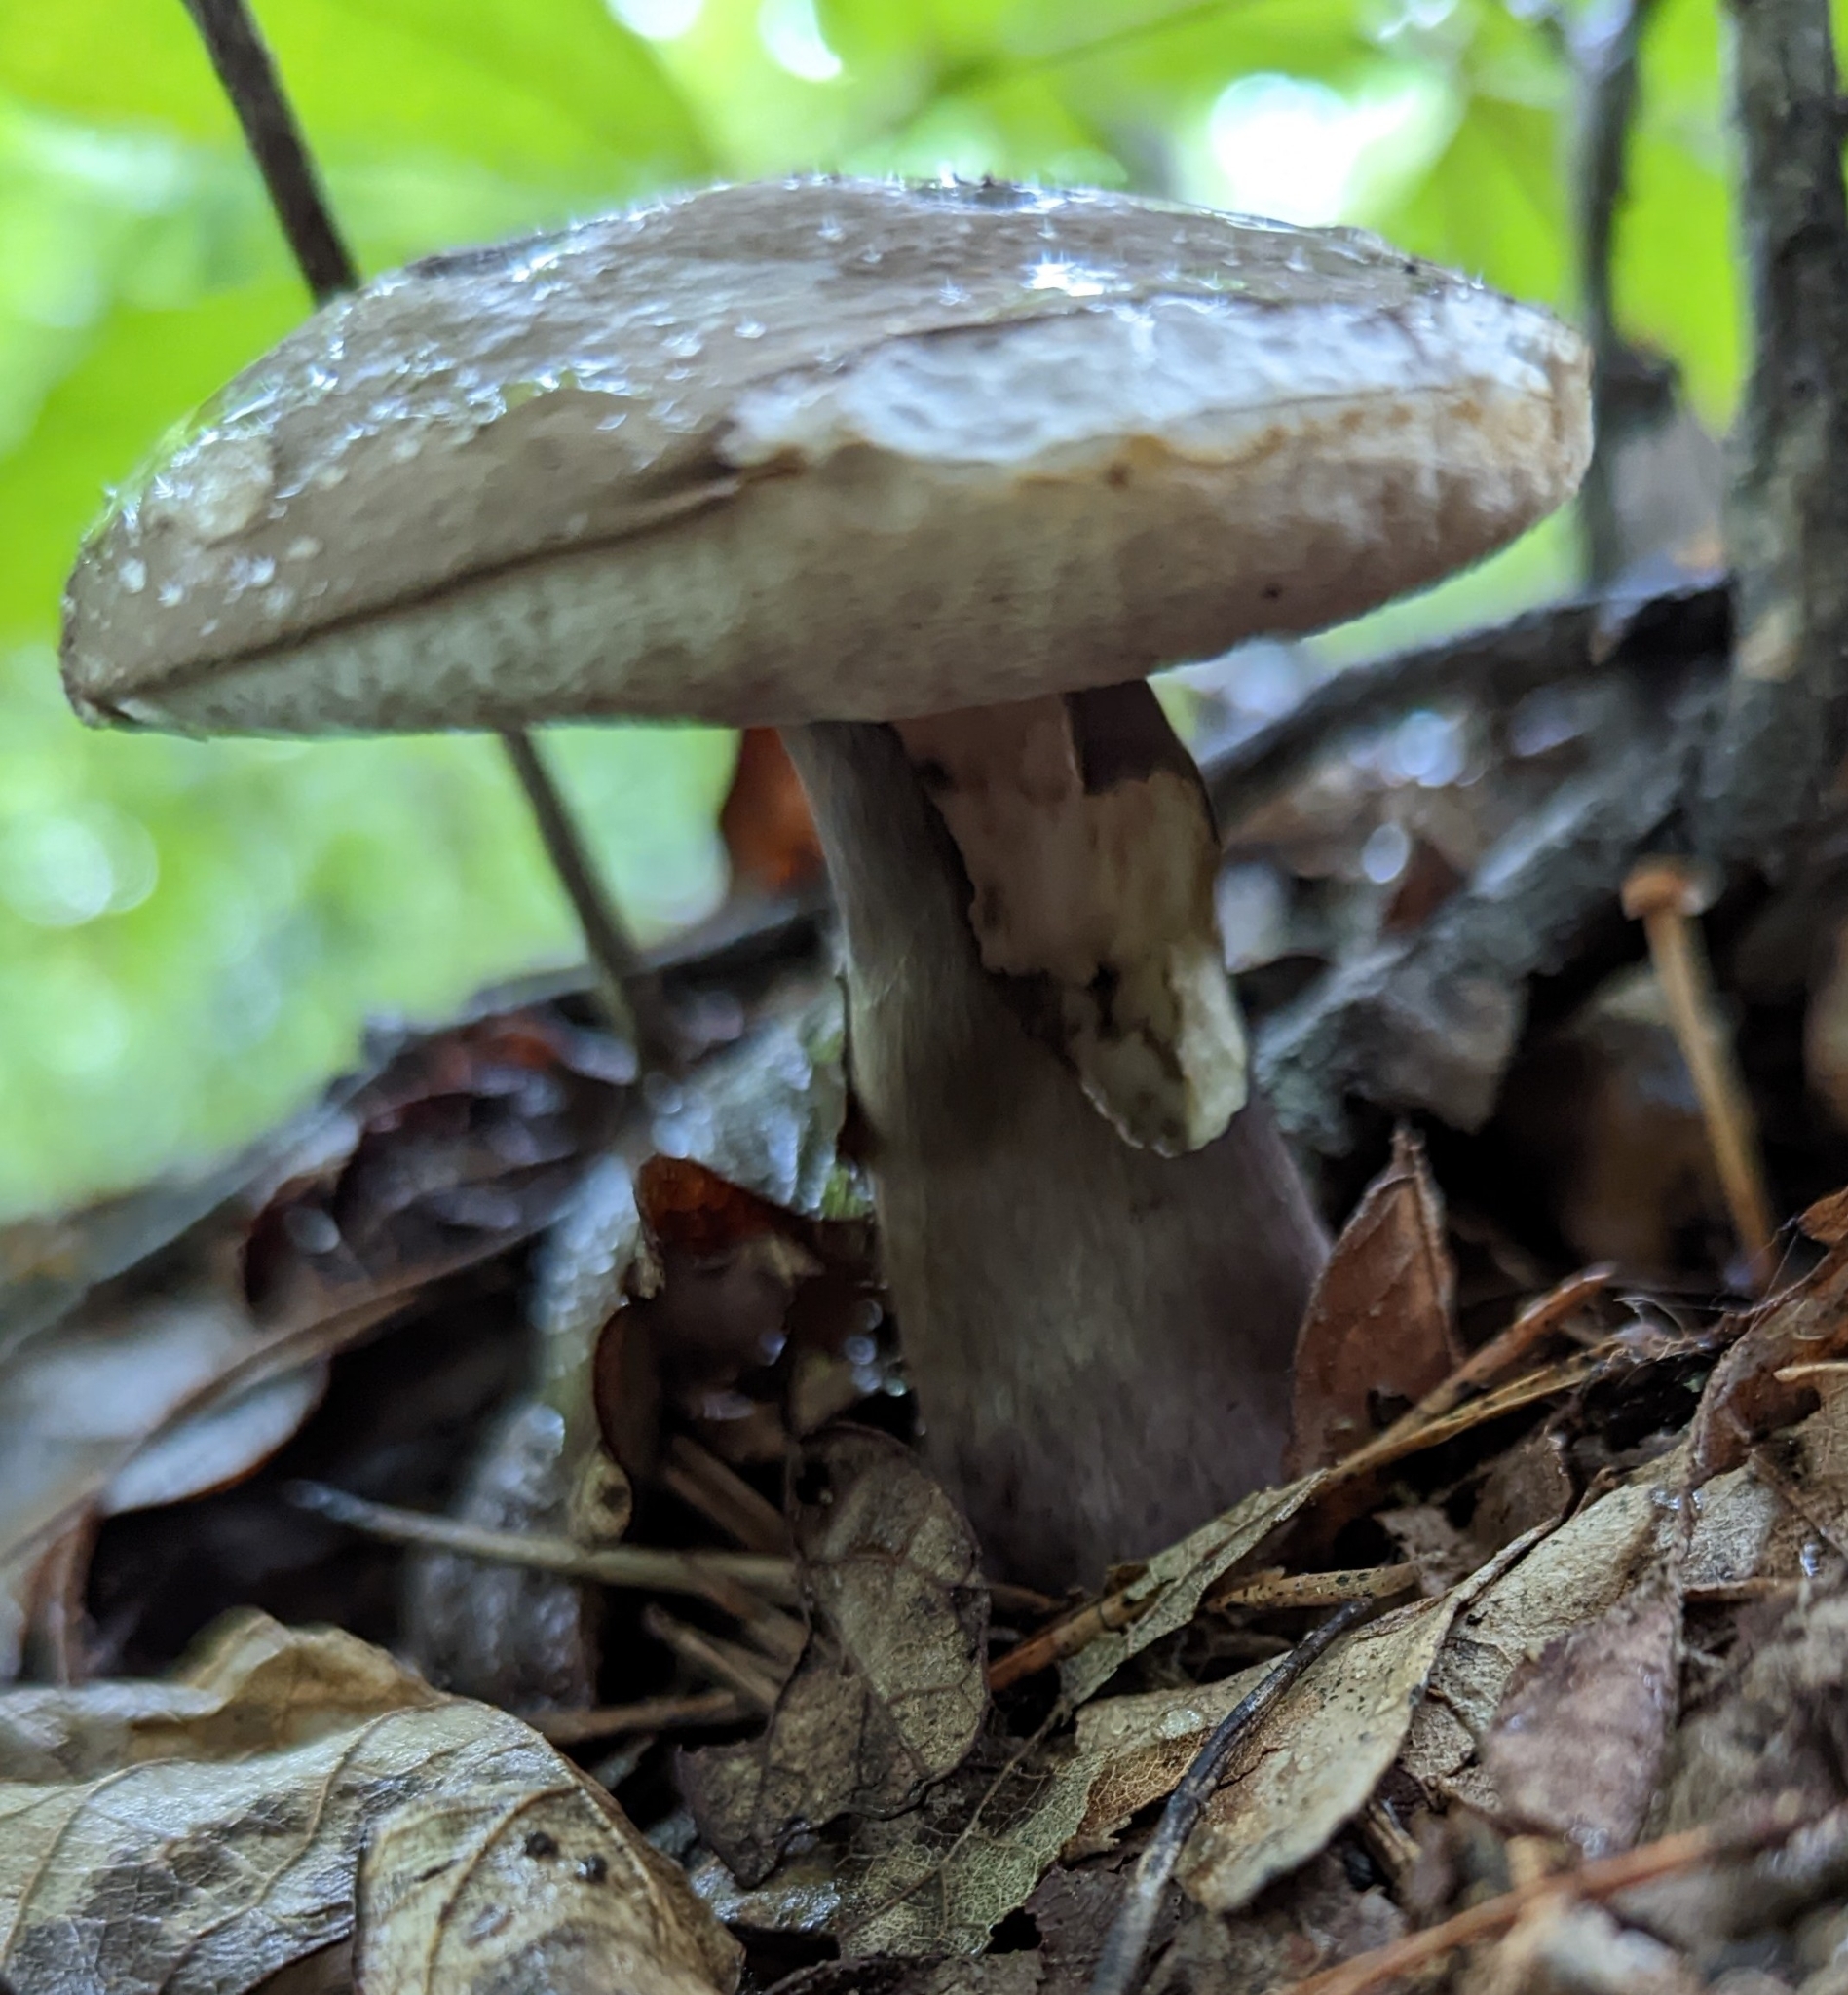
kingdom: Fungi
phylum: Basidiomycota
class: Agaricomycetes
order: Boletales
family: Boletaceae
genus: Tylopilus
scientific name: Tylopilus plumbeoviolaceus
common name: Violet gray bolete
